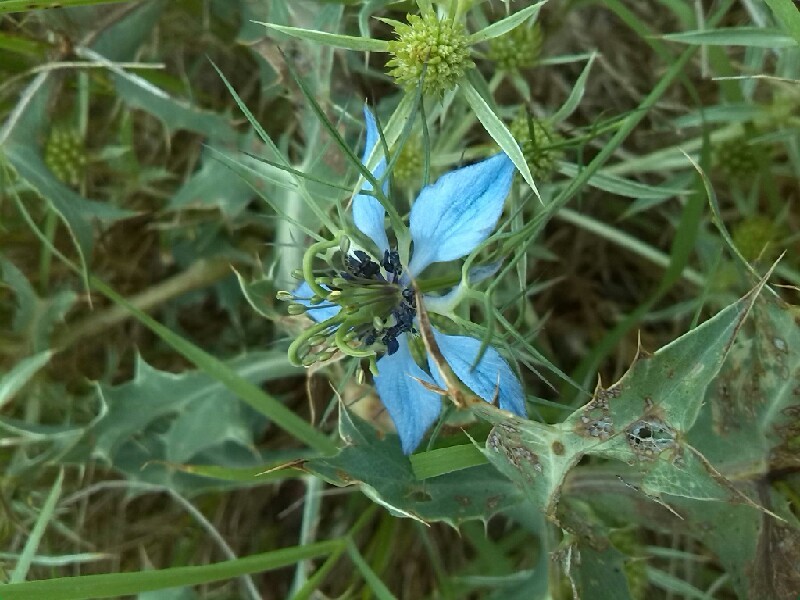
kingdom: Plantae
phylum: Tracheophyta
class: Magnoliopsida
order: Ranunculales
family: Ranunculaceae
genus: Nigella
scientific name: Nigella damascena
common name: Love-in-a-mist
